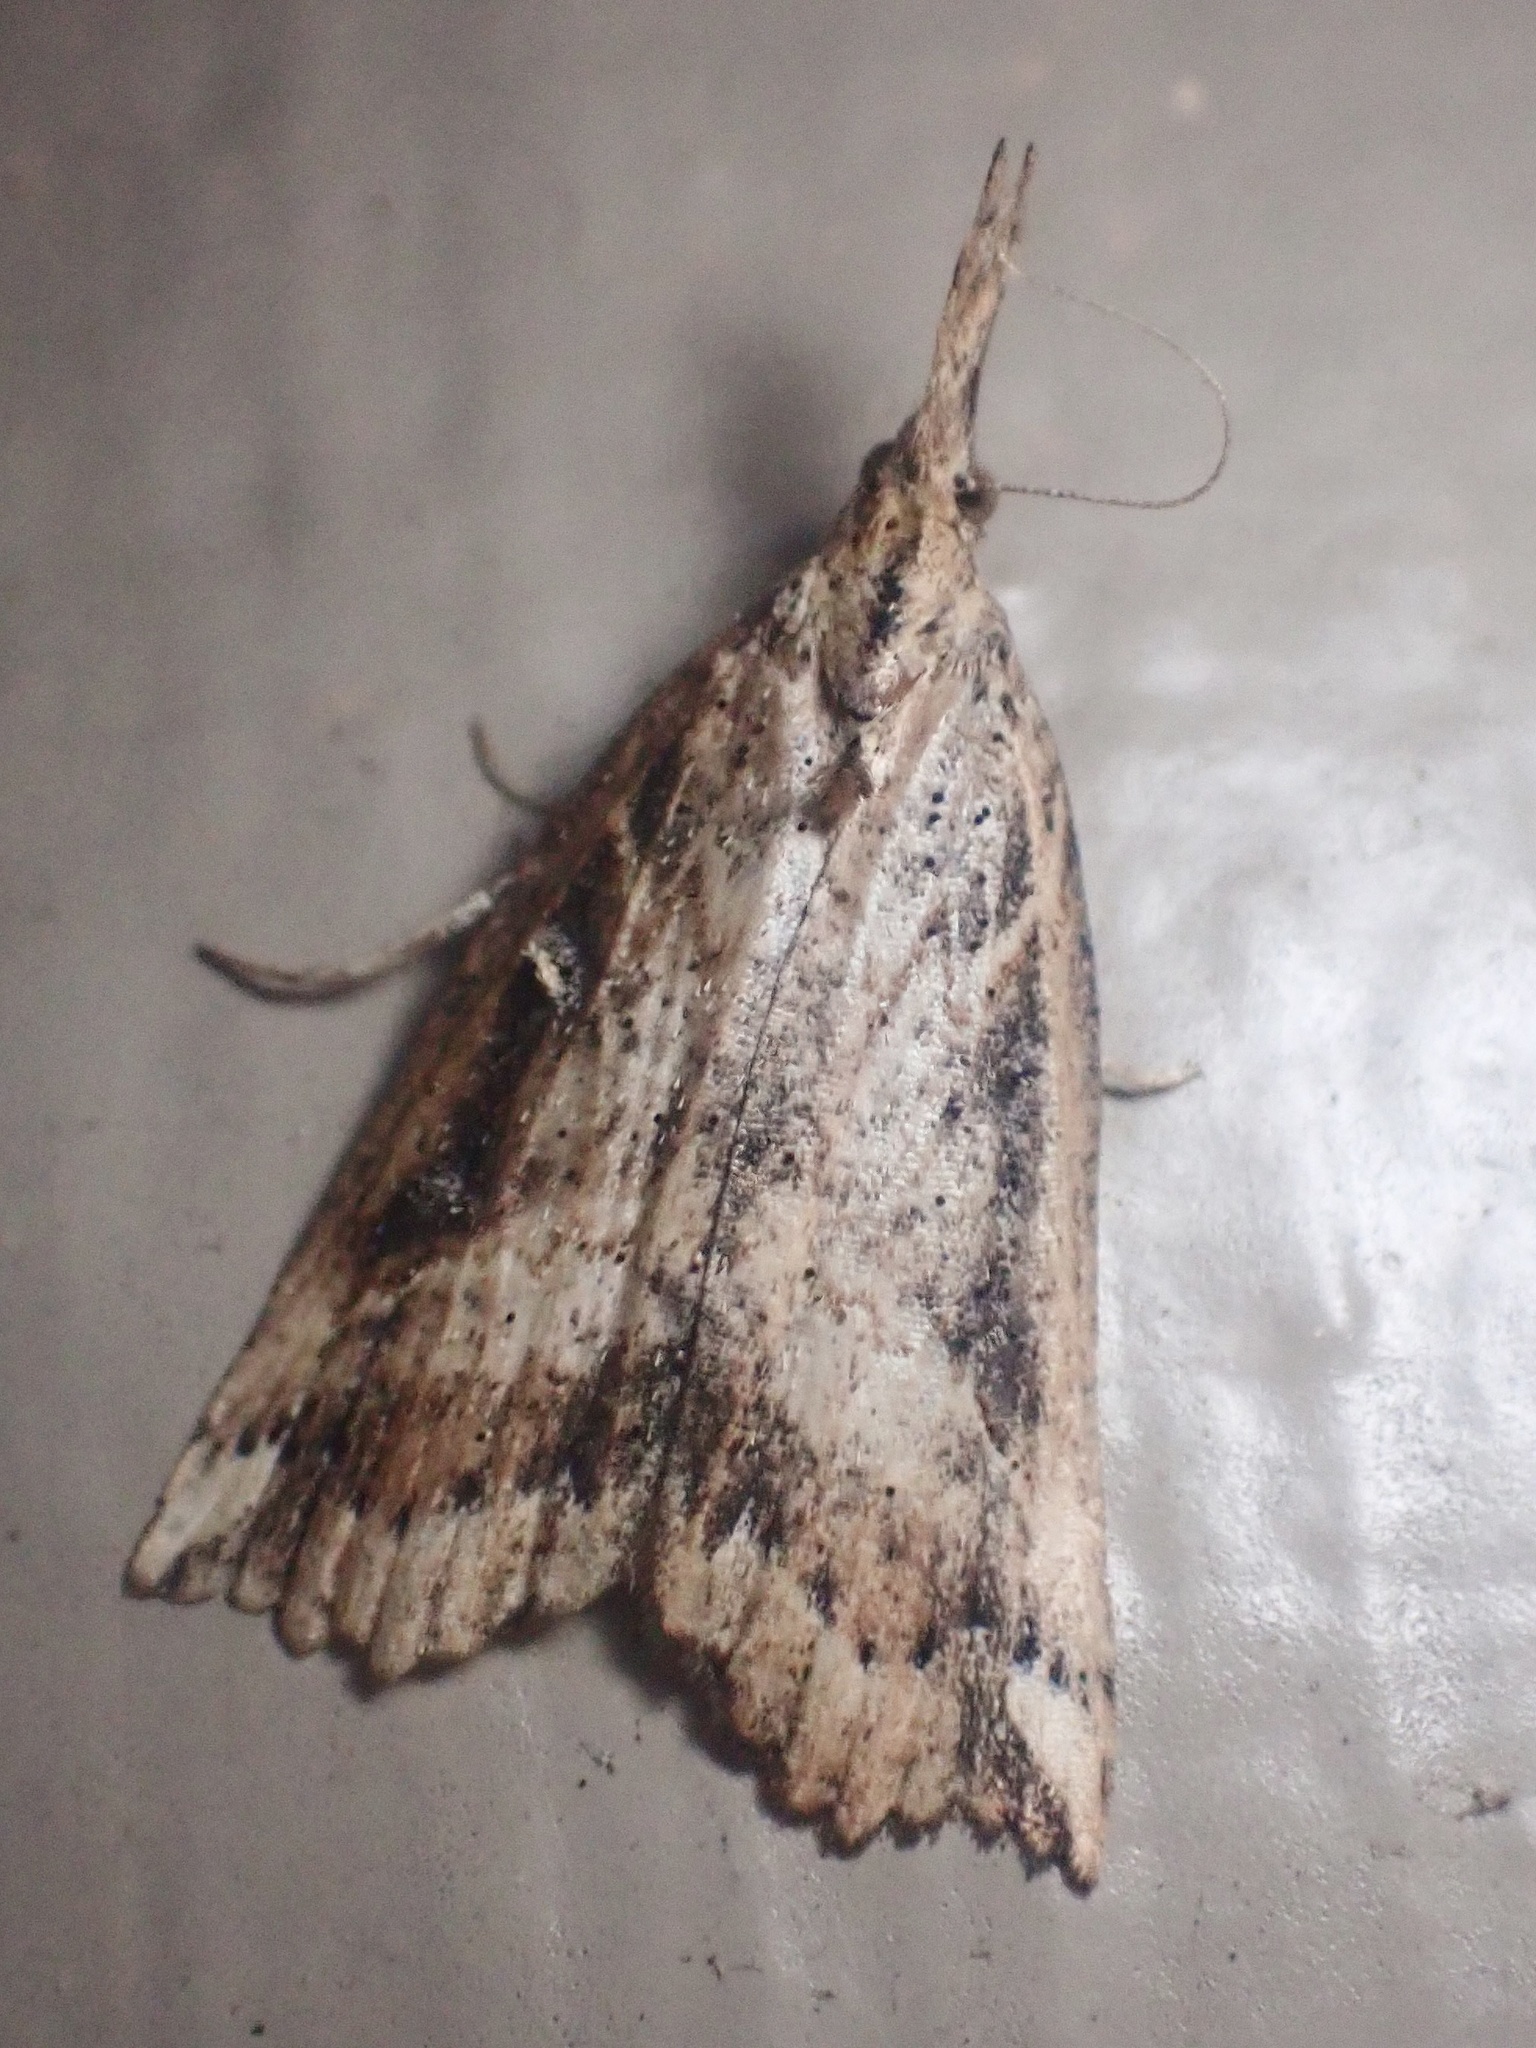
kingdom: Animalia
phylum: Arthropoda
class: Insecta
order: Lepidoptera
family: Erebidae
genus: Hypena
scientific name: Hypena californica
